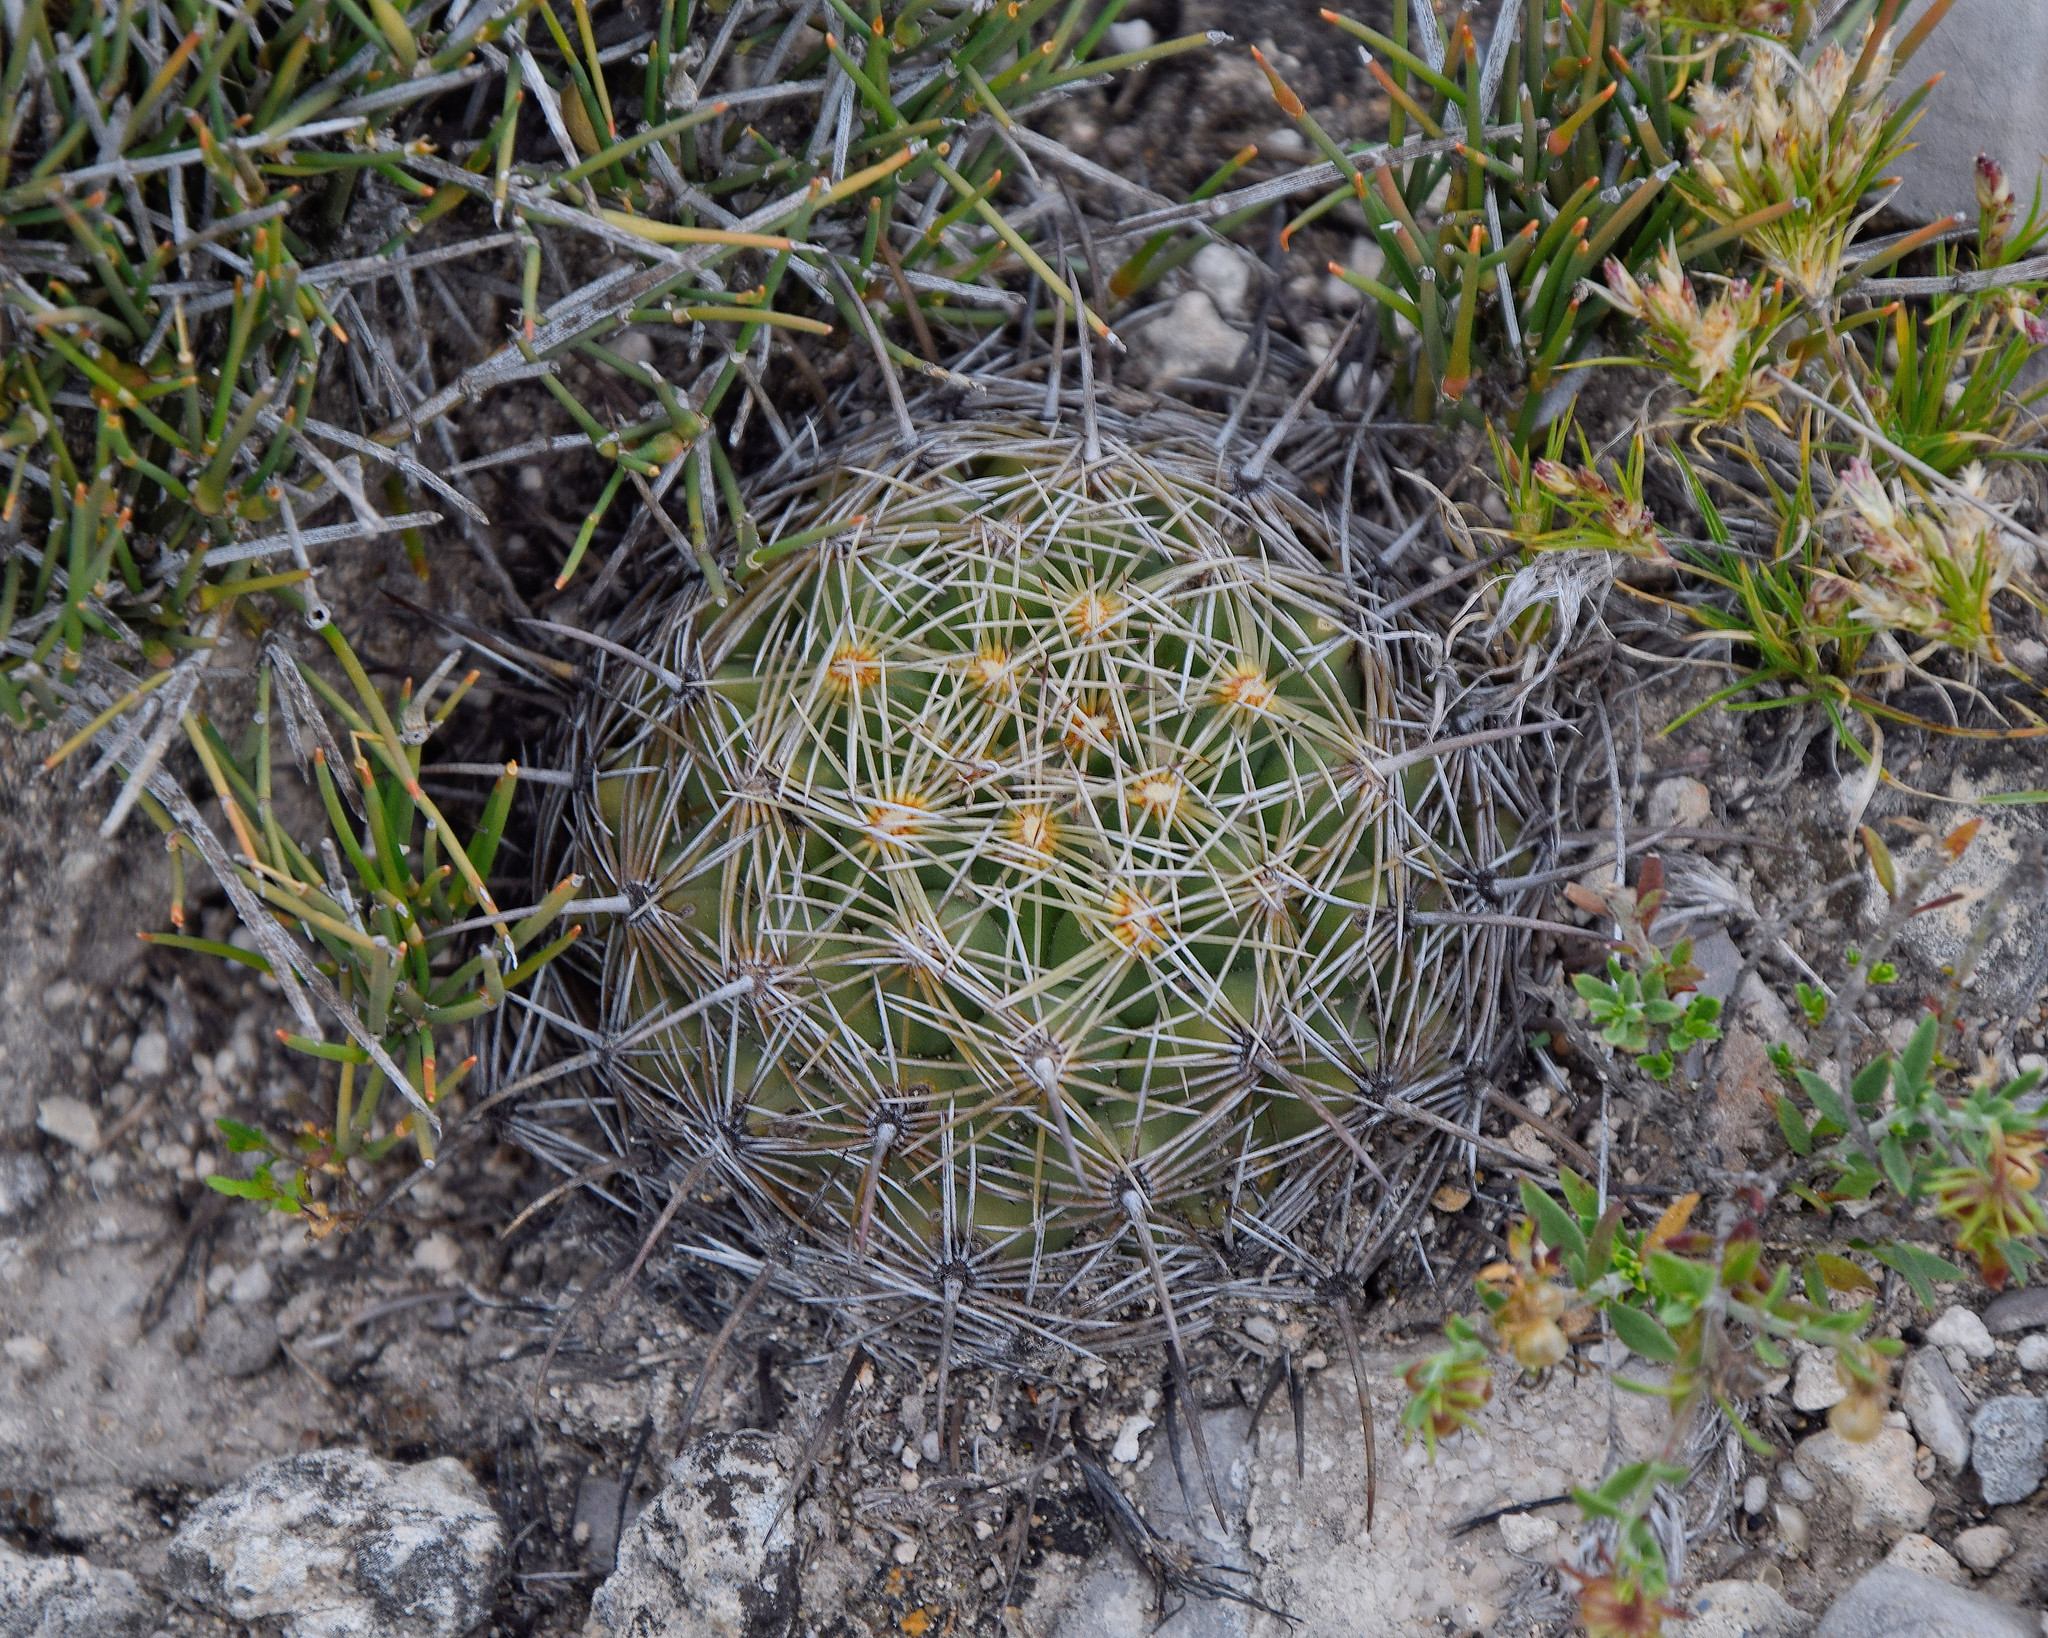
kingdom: Plantae
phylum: Tracheophyta
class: Magnoliopsida
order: Caryophyllales
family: Cactaceae
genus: Coryphantha
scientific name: Coryphantha cornifera
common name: Rhinoceros cactus
